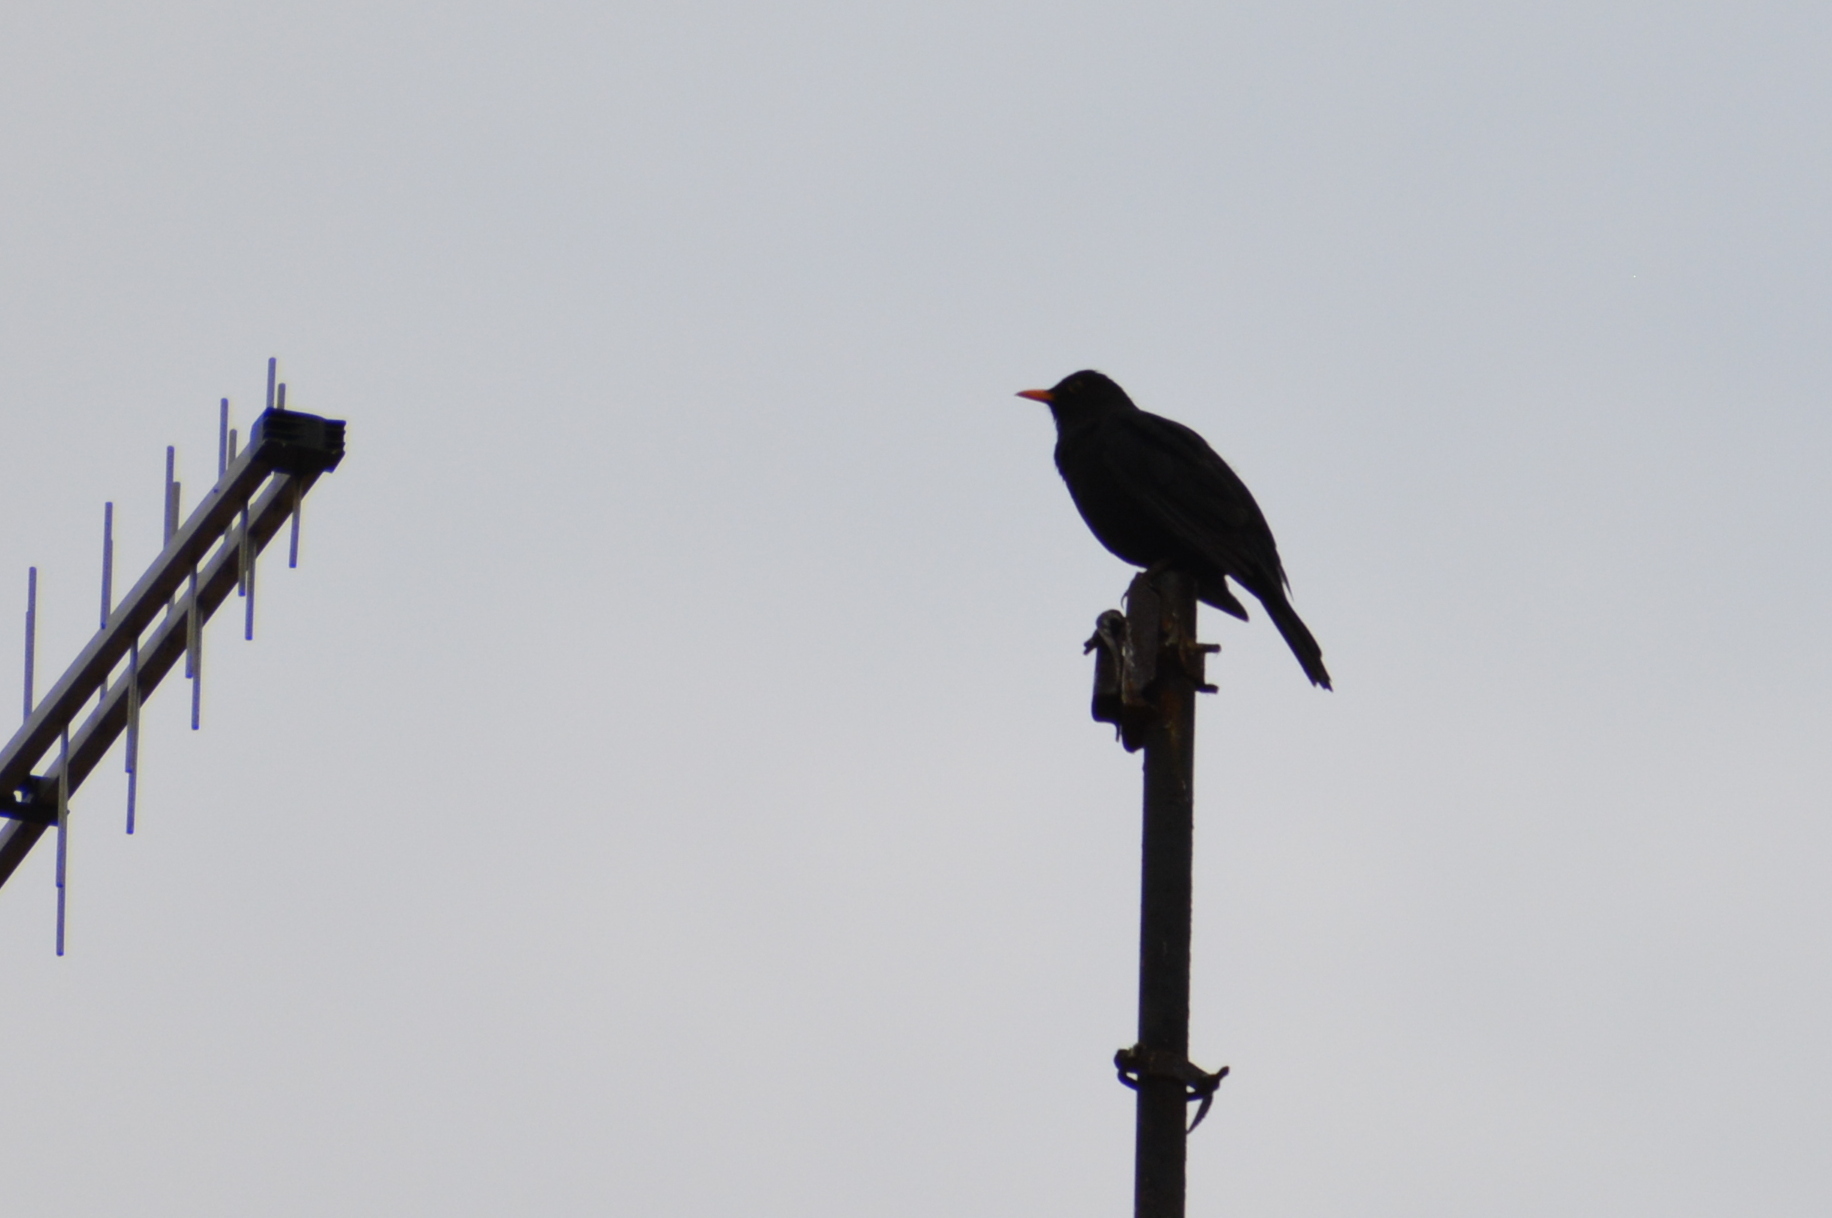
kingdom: Animalia
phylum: Chordata
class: Aves
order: Passeriformes
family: Turdidae
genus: Turdus
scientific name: Turdus merula
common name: Common blackbird
